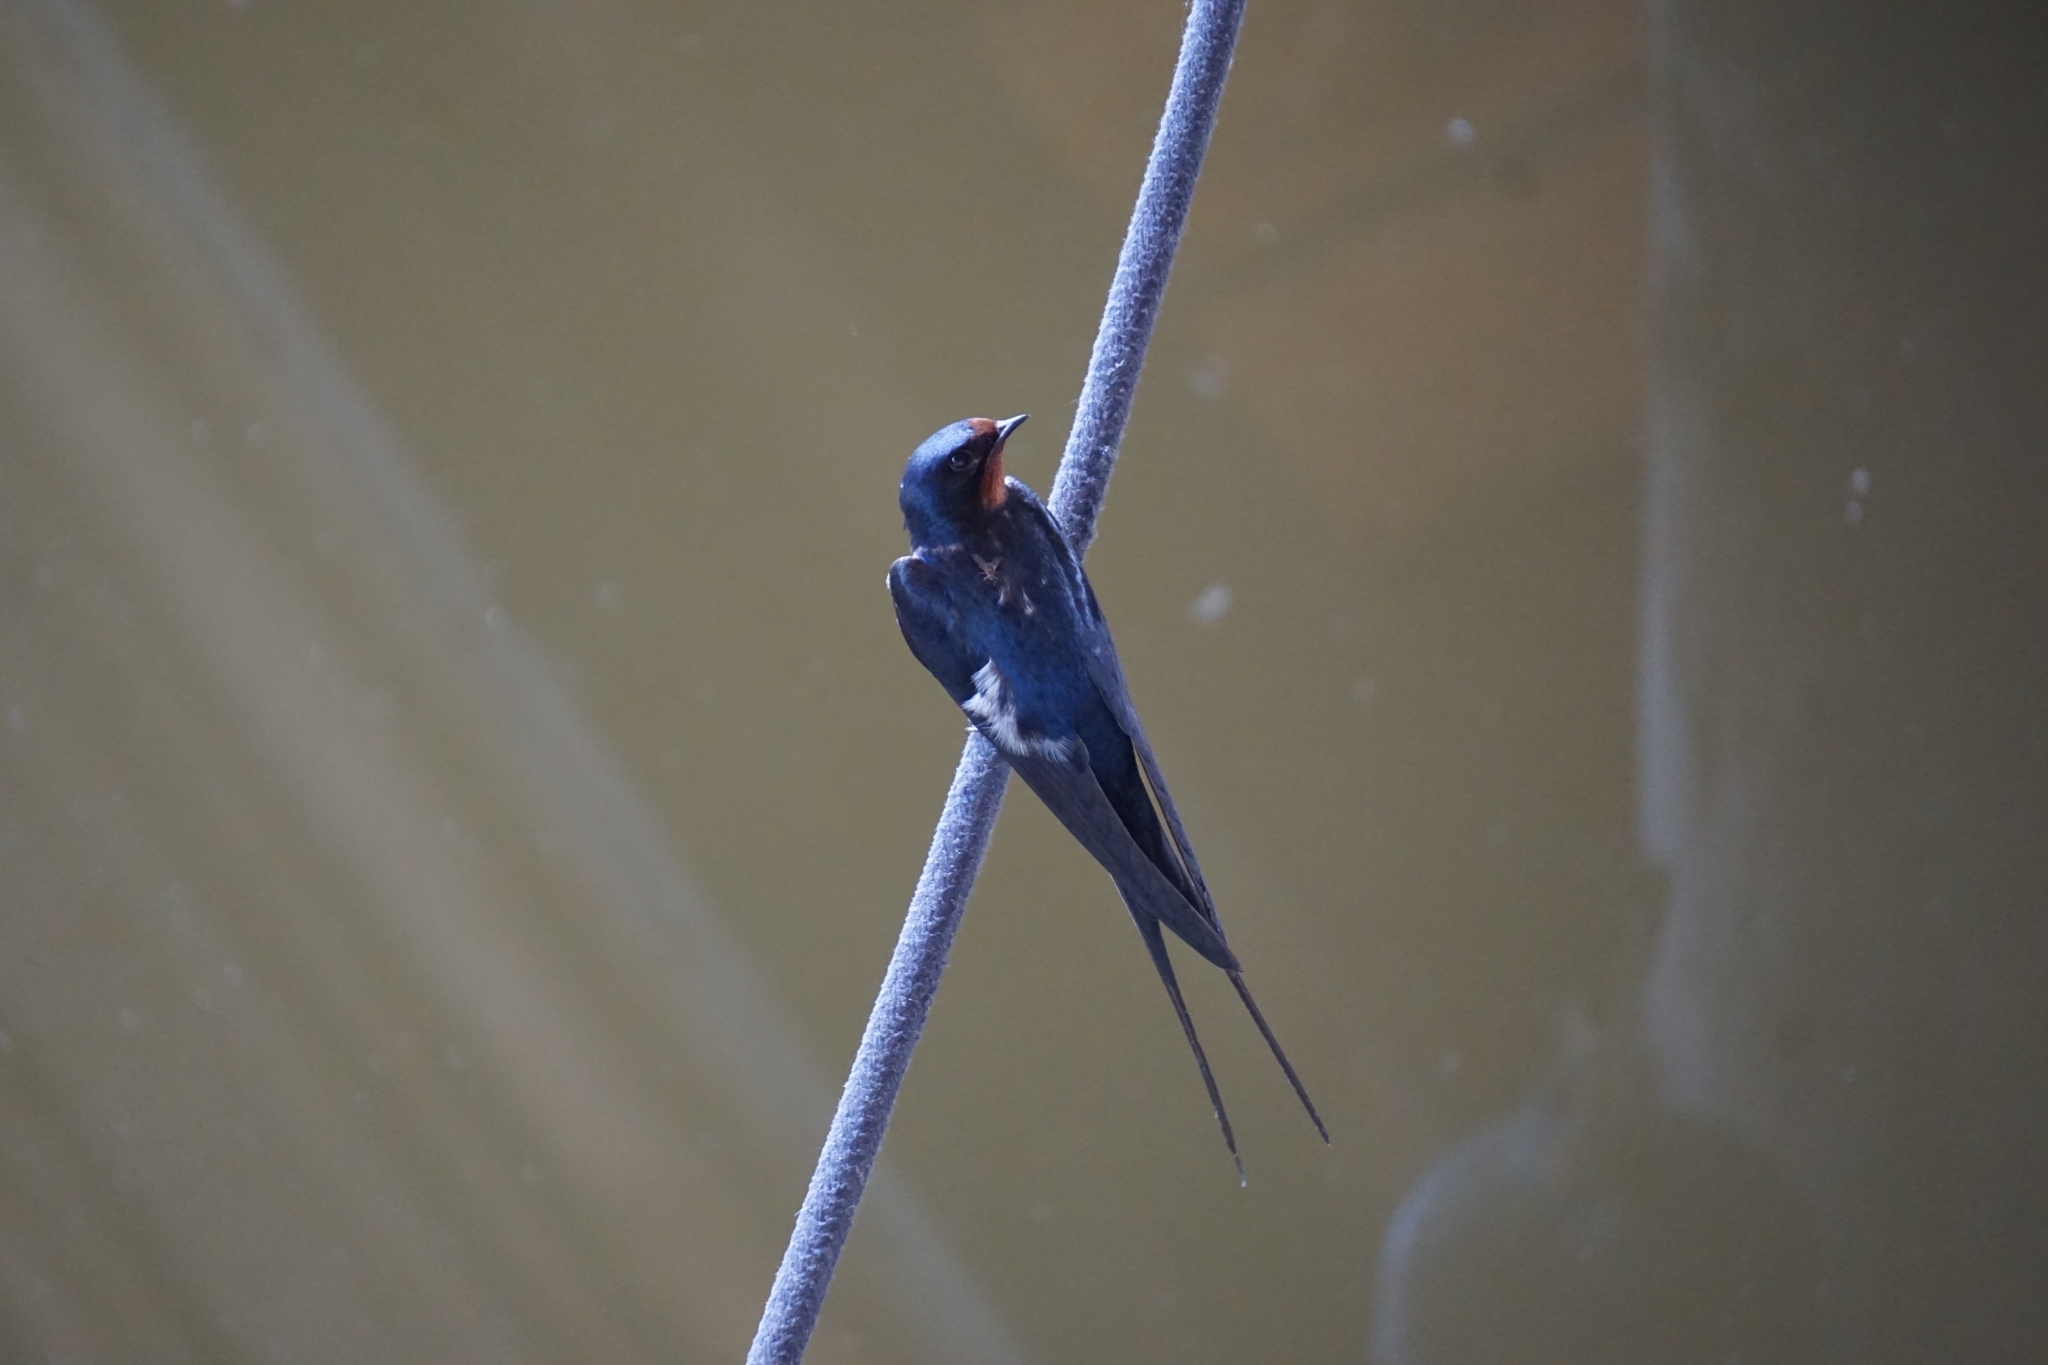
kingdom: Animalia
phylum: Chordata
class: Aves
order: Passeriformes
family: Hirundinidae
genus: Hirundo
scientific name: Hirundo rustica
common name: Barn swallow
